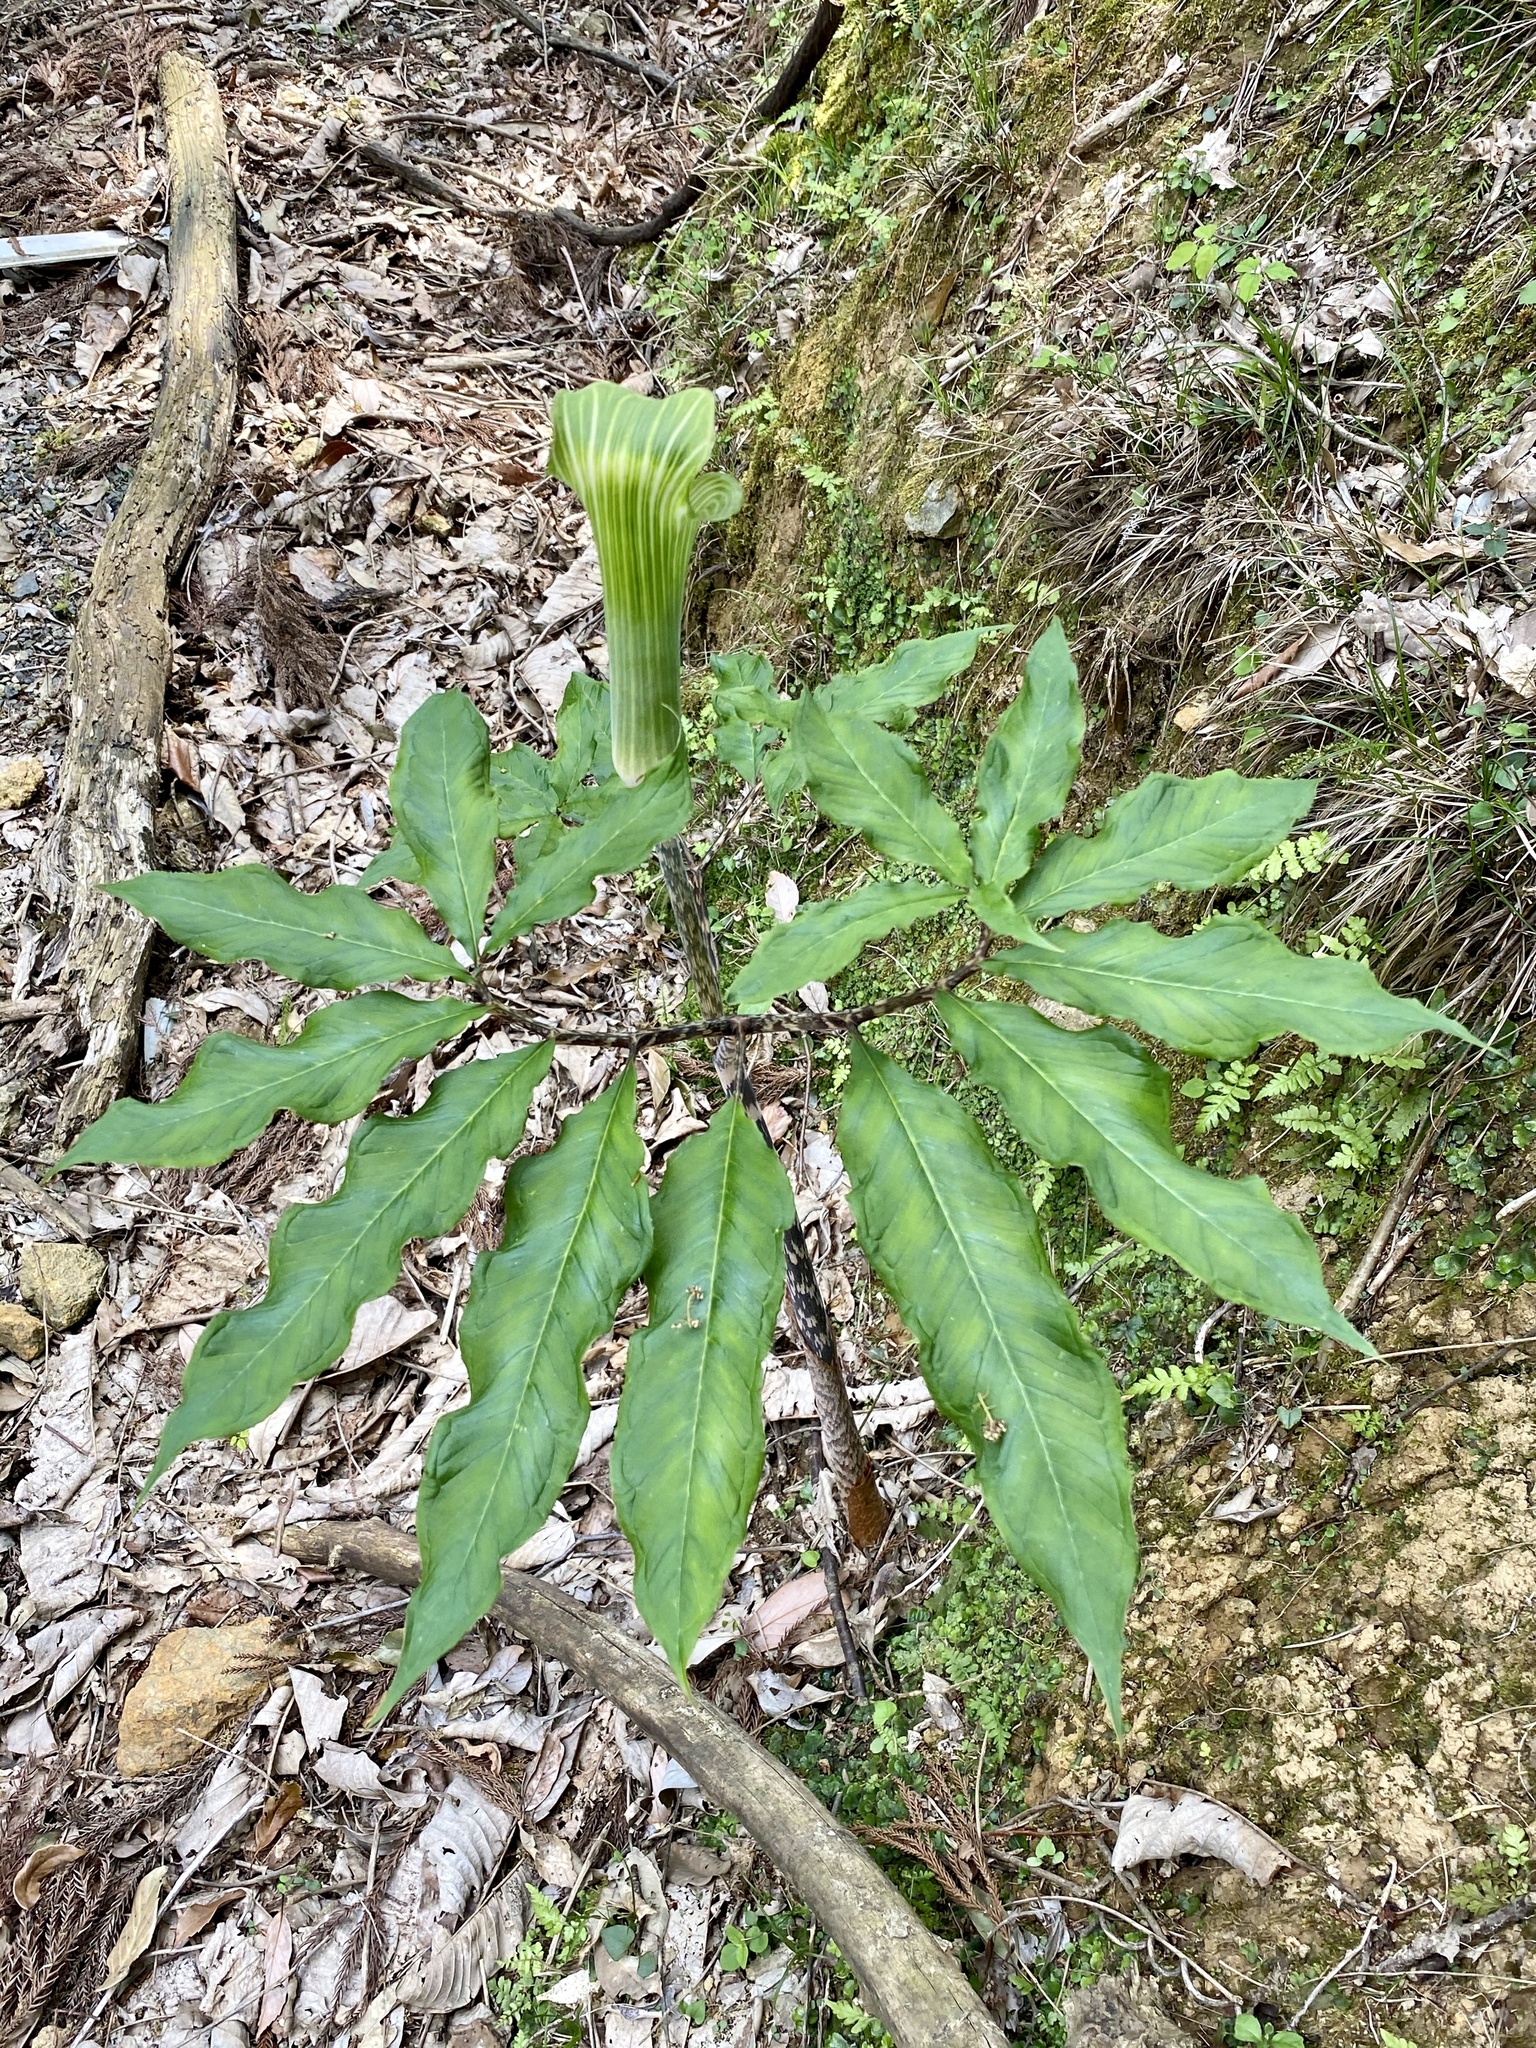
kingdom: Plantae
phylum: Tracheophyta
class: Liliopsida
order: Alismatales
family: Araceae
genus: Arisaema
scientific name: Arisaema angustatum
